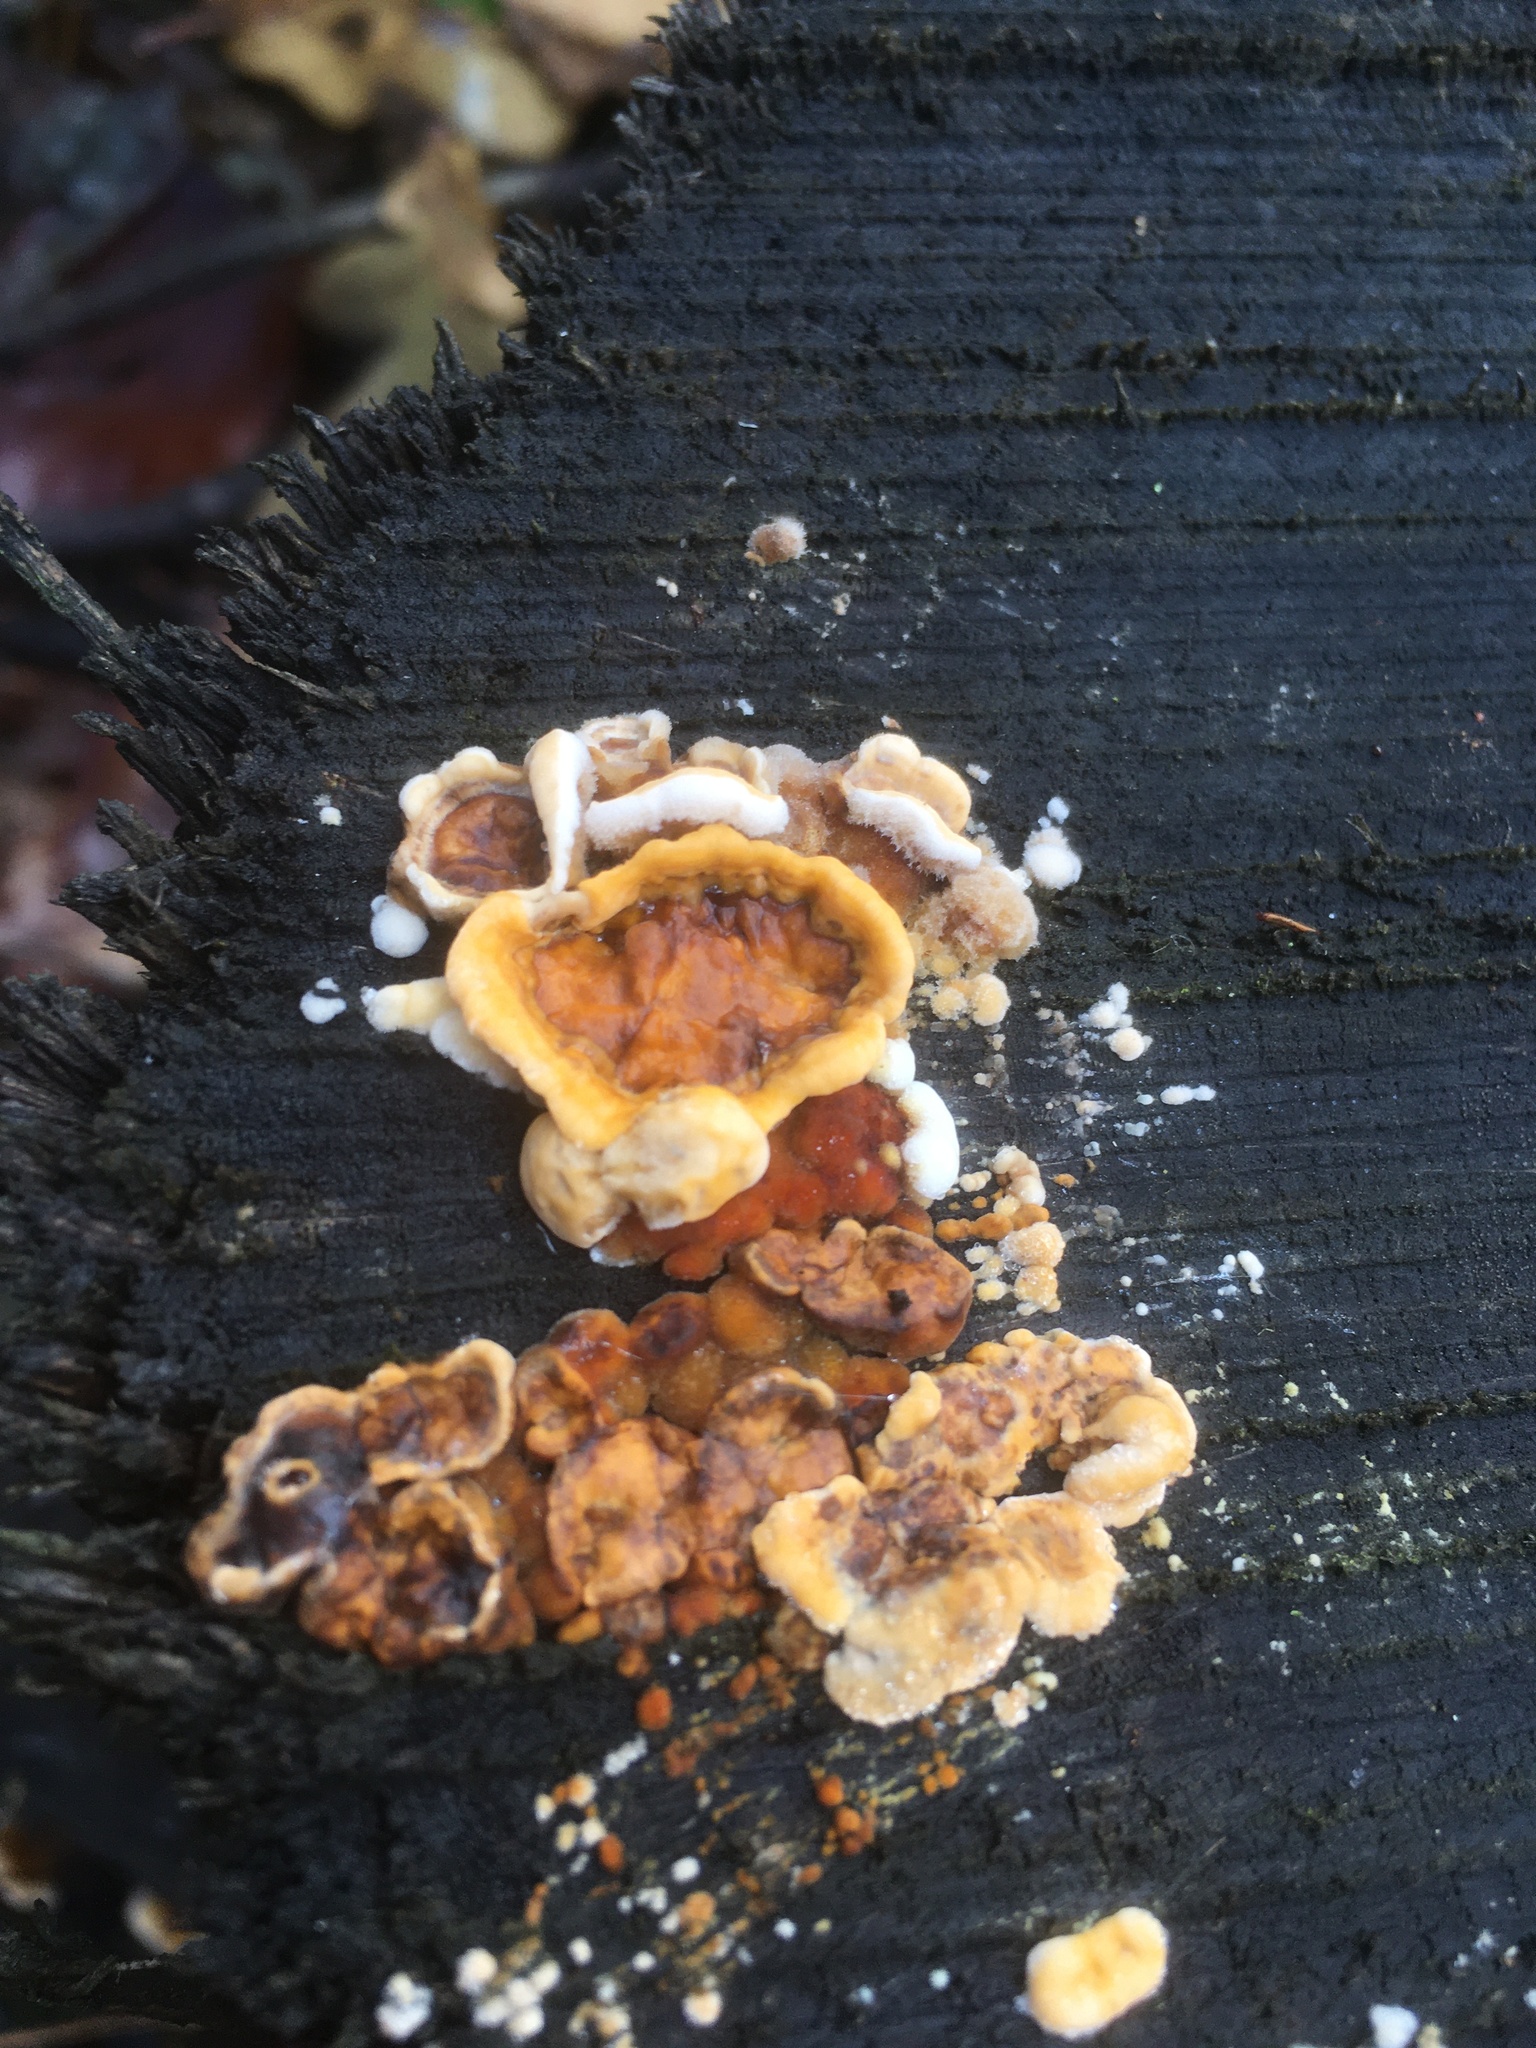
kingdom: Fungi
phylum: Basidiomycota
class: Agaricomycetes
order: Russulales
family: Stereaceae
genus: Stereum
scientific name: Stereum hirsutum
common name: Hairy curtain crust
